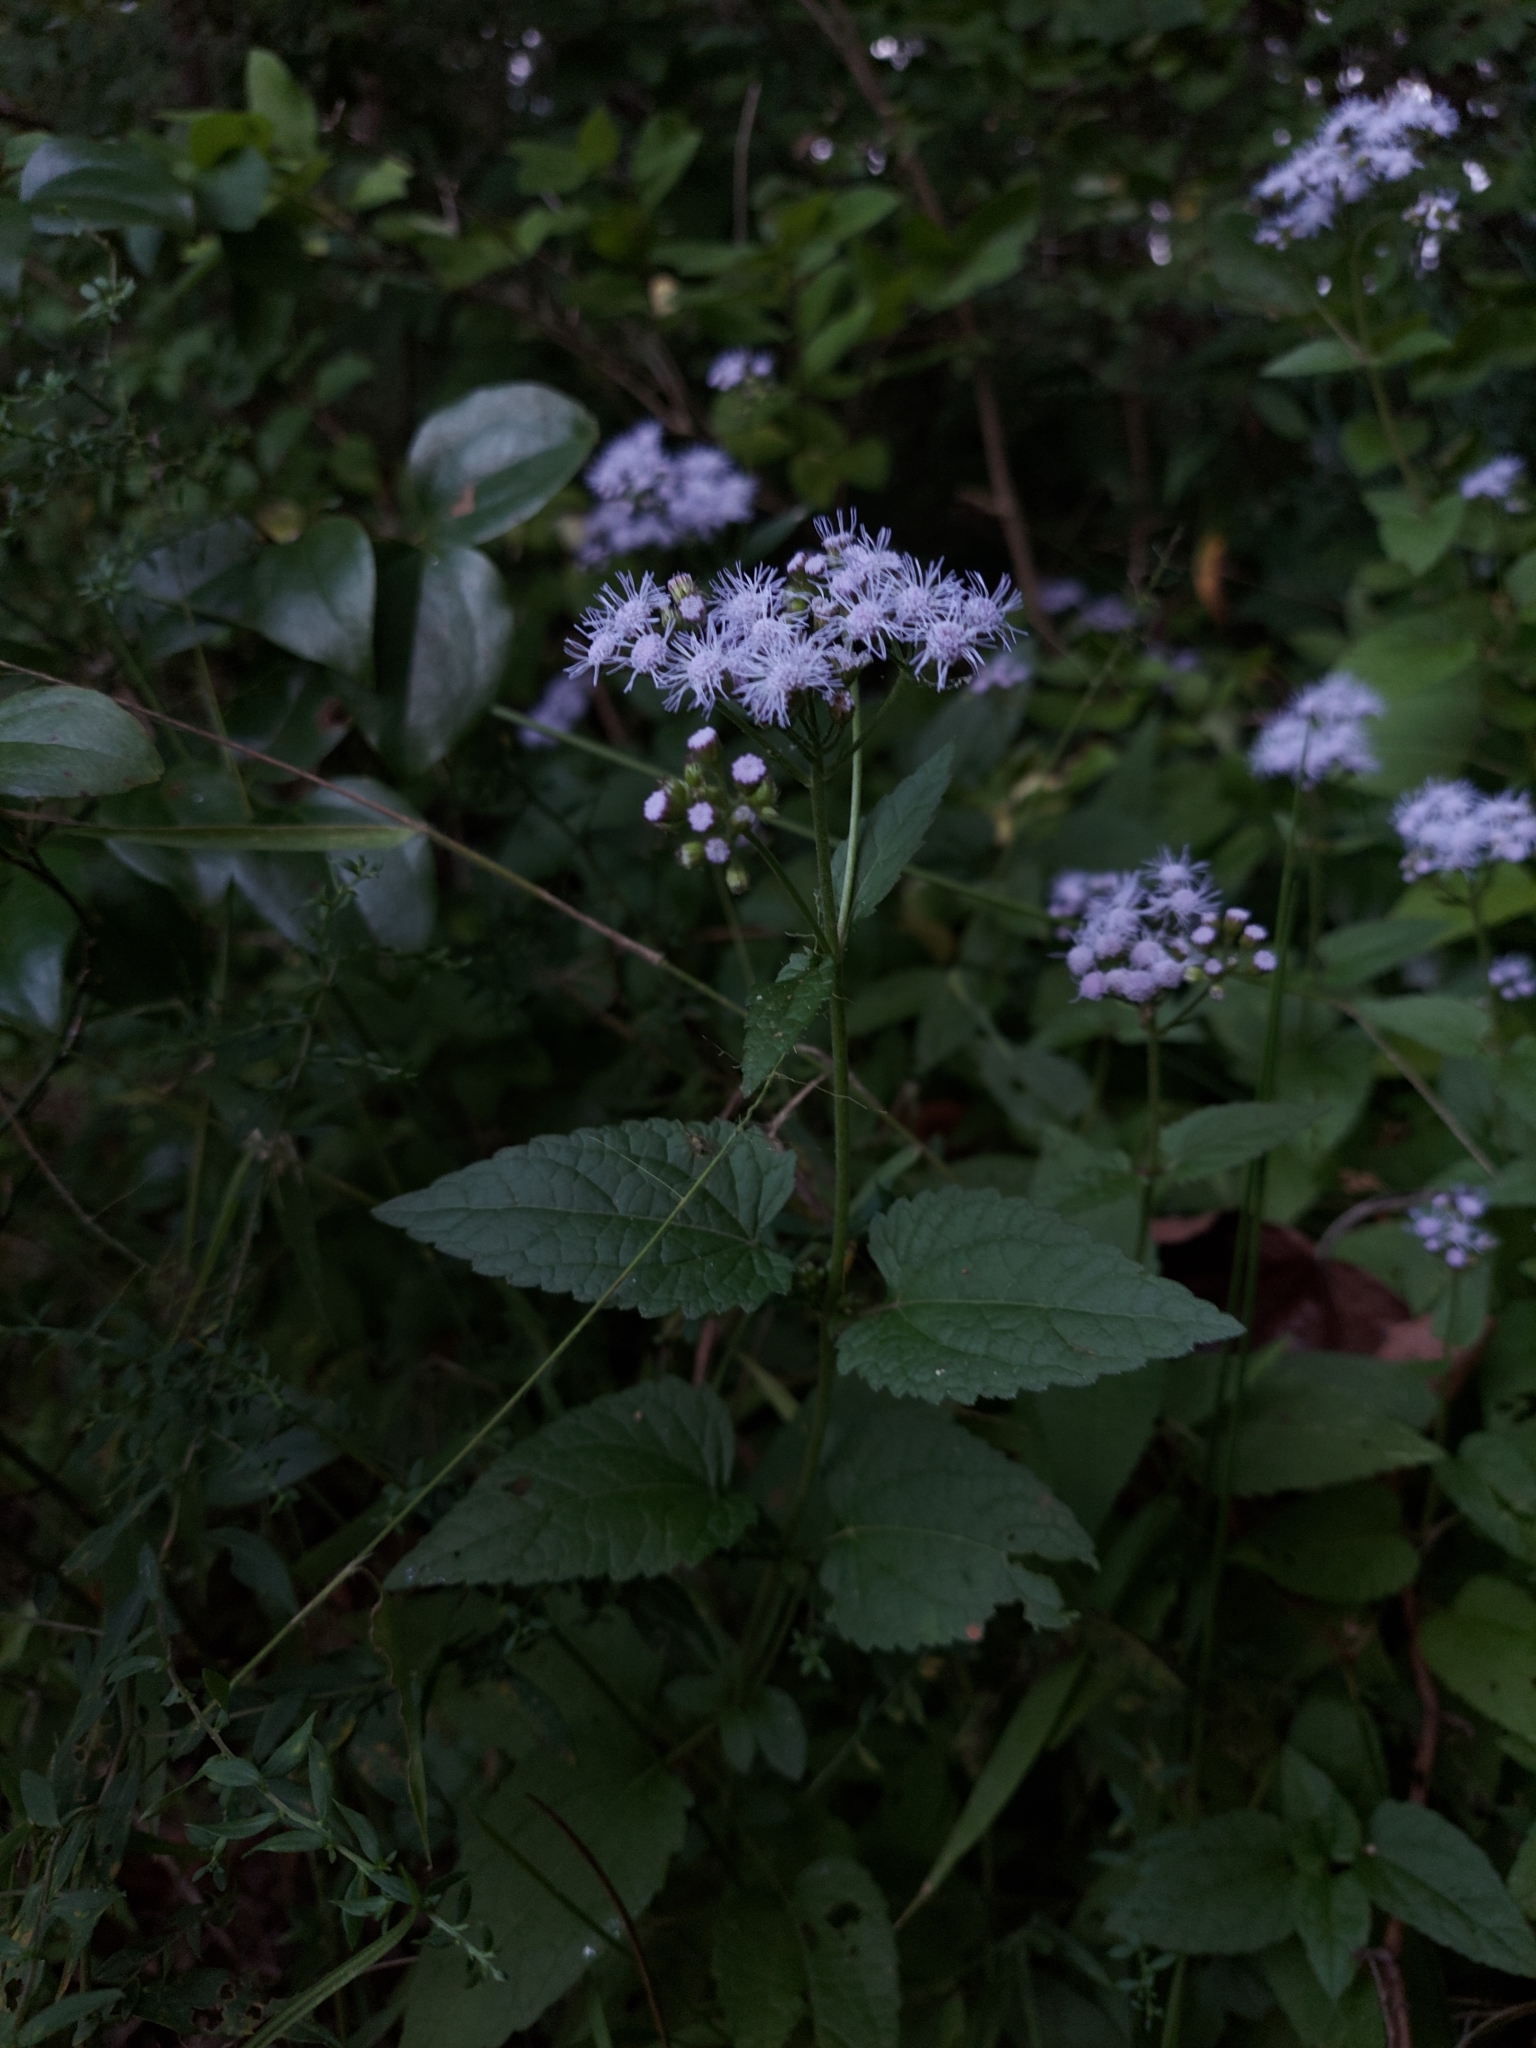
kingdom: Plantae
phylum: Tracheophyta
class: Magnoliopsida
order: Asterales
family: Asteraceae
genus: Conoclinium
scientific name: Conoclinium coelestinum
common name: Blue mistflower
